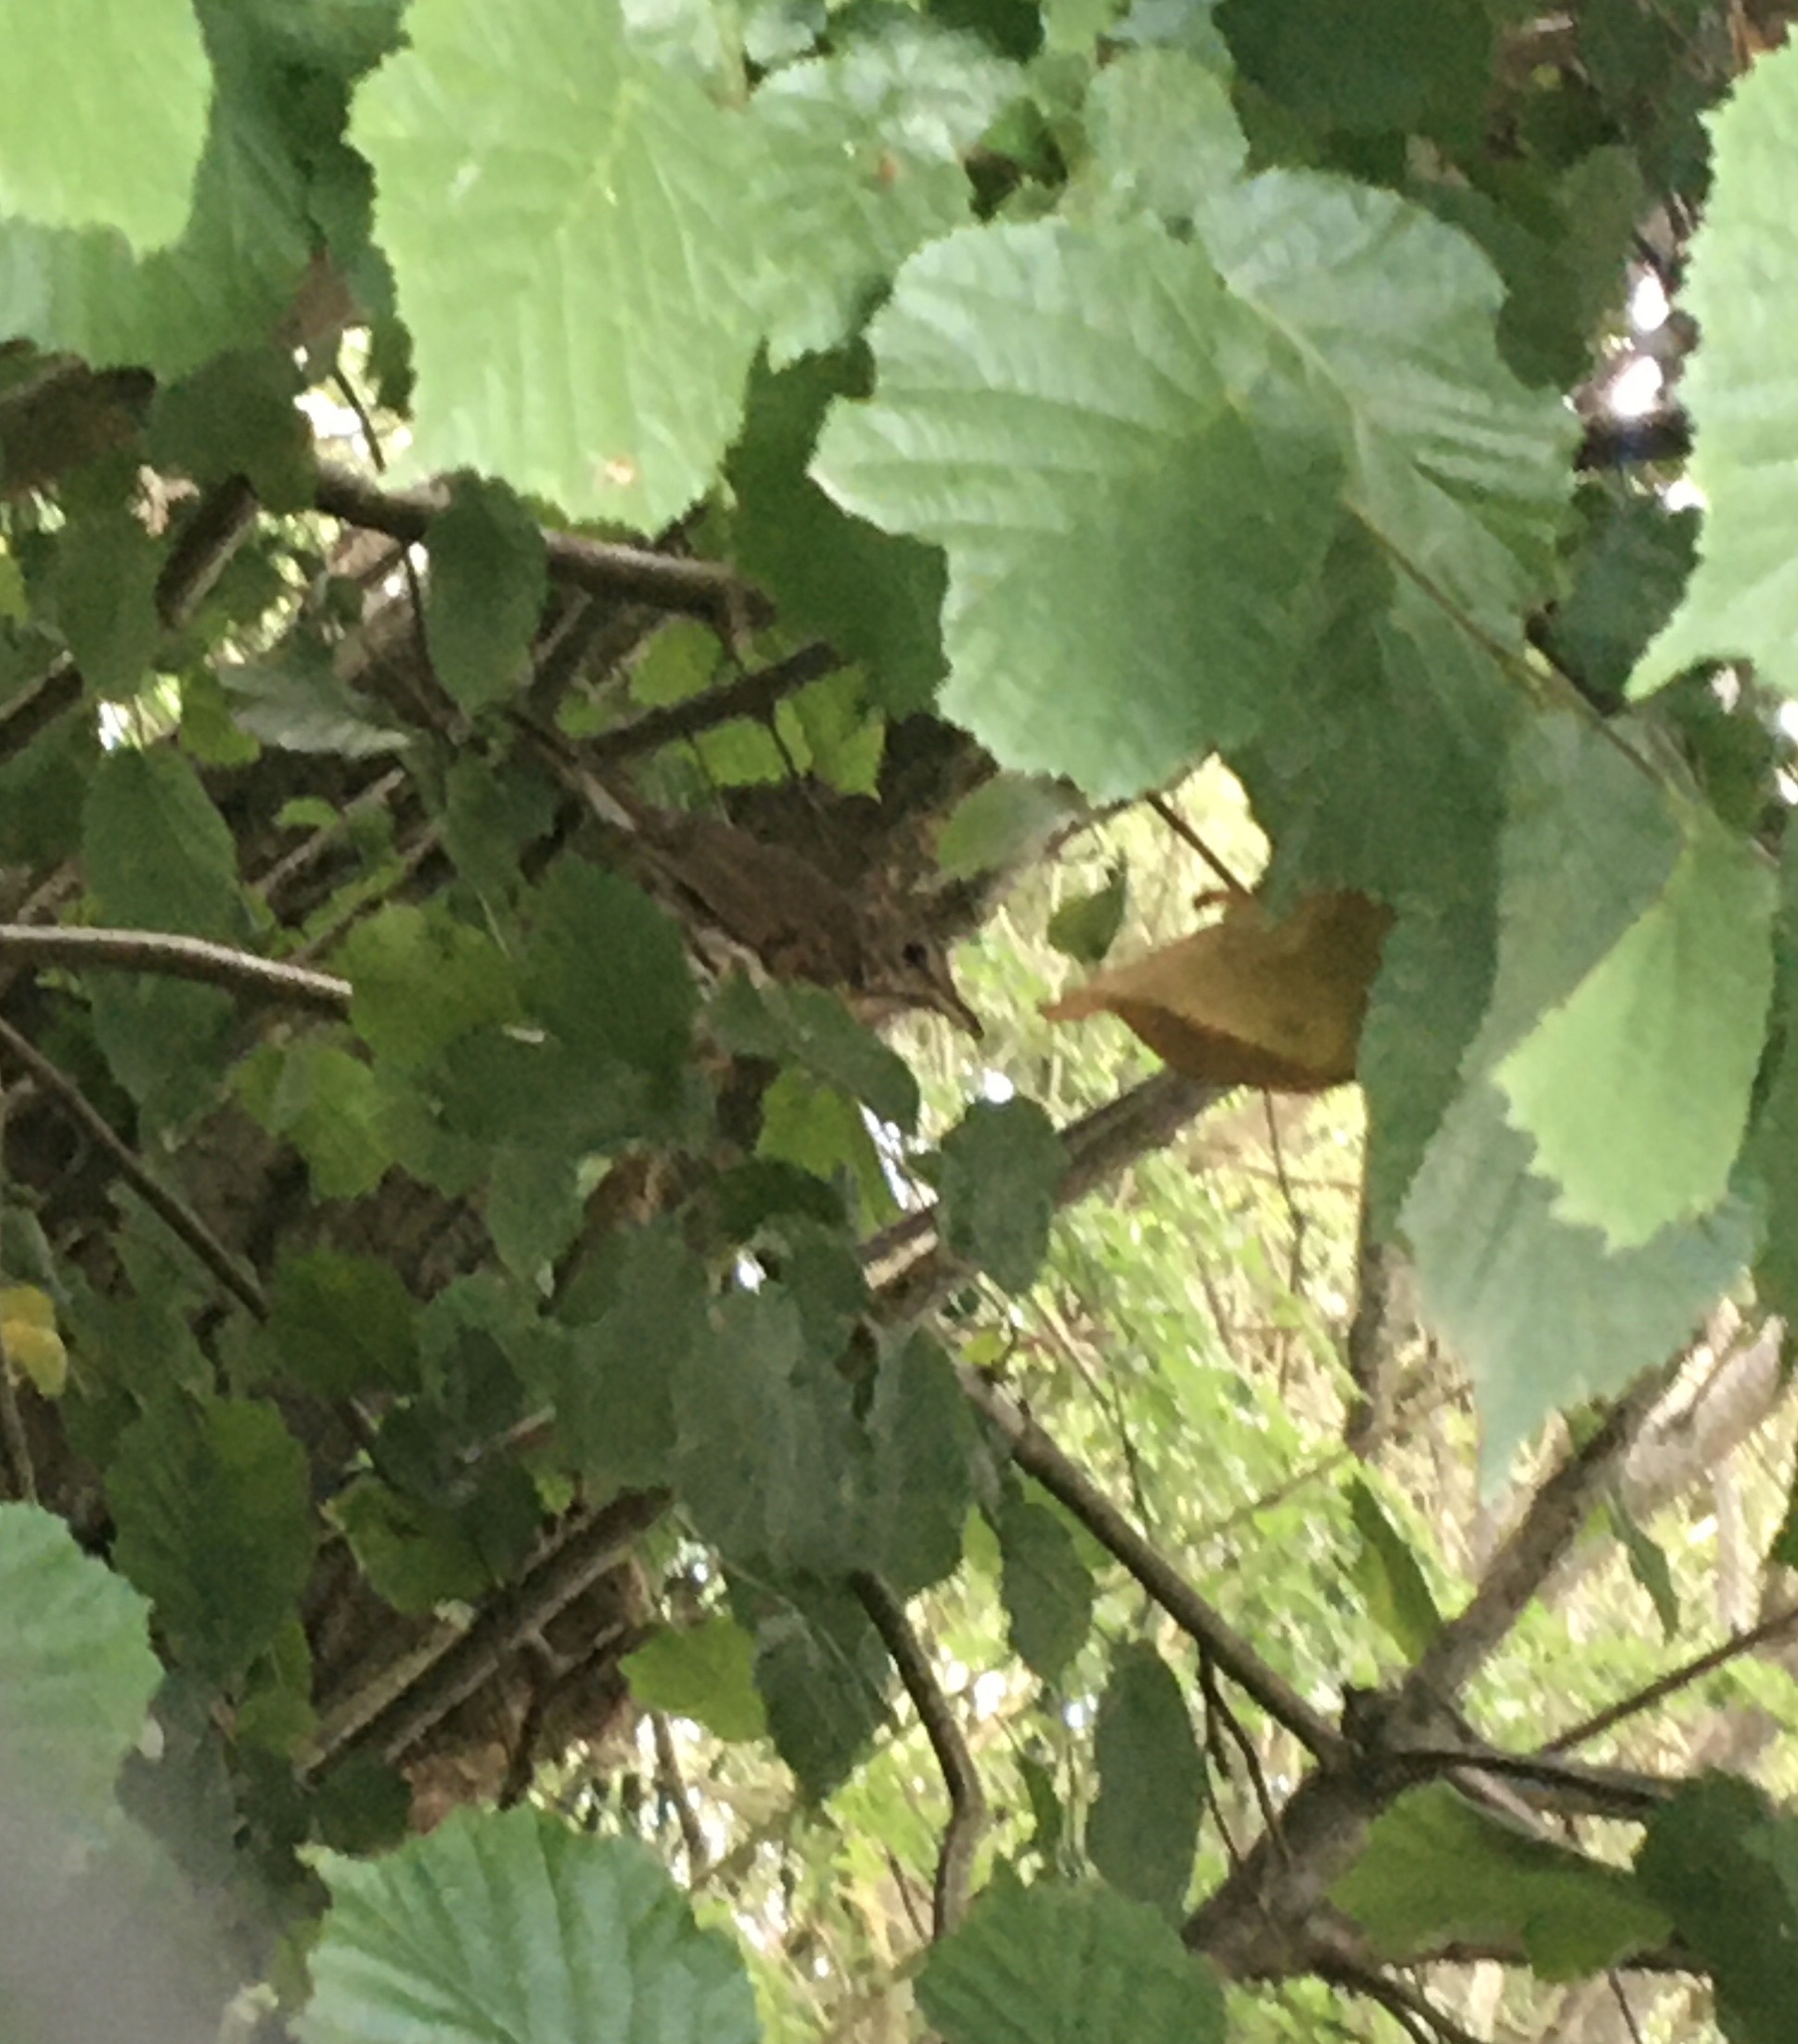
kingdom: Animalia
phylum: Chordata
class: Aves
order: Passeriformes
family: Turdidae
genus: Turdus
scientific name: Turdus philomelos
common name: Song thrush
